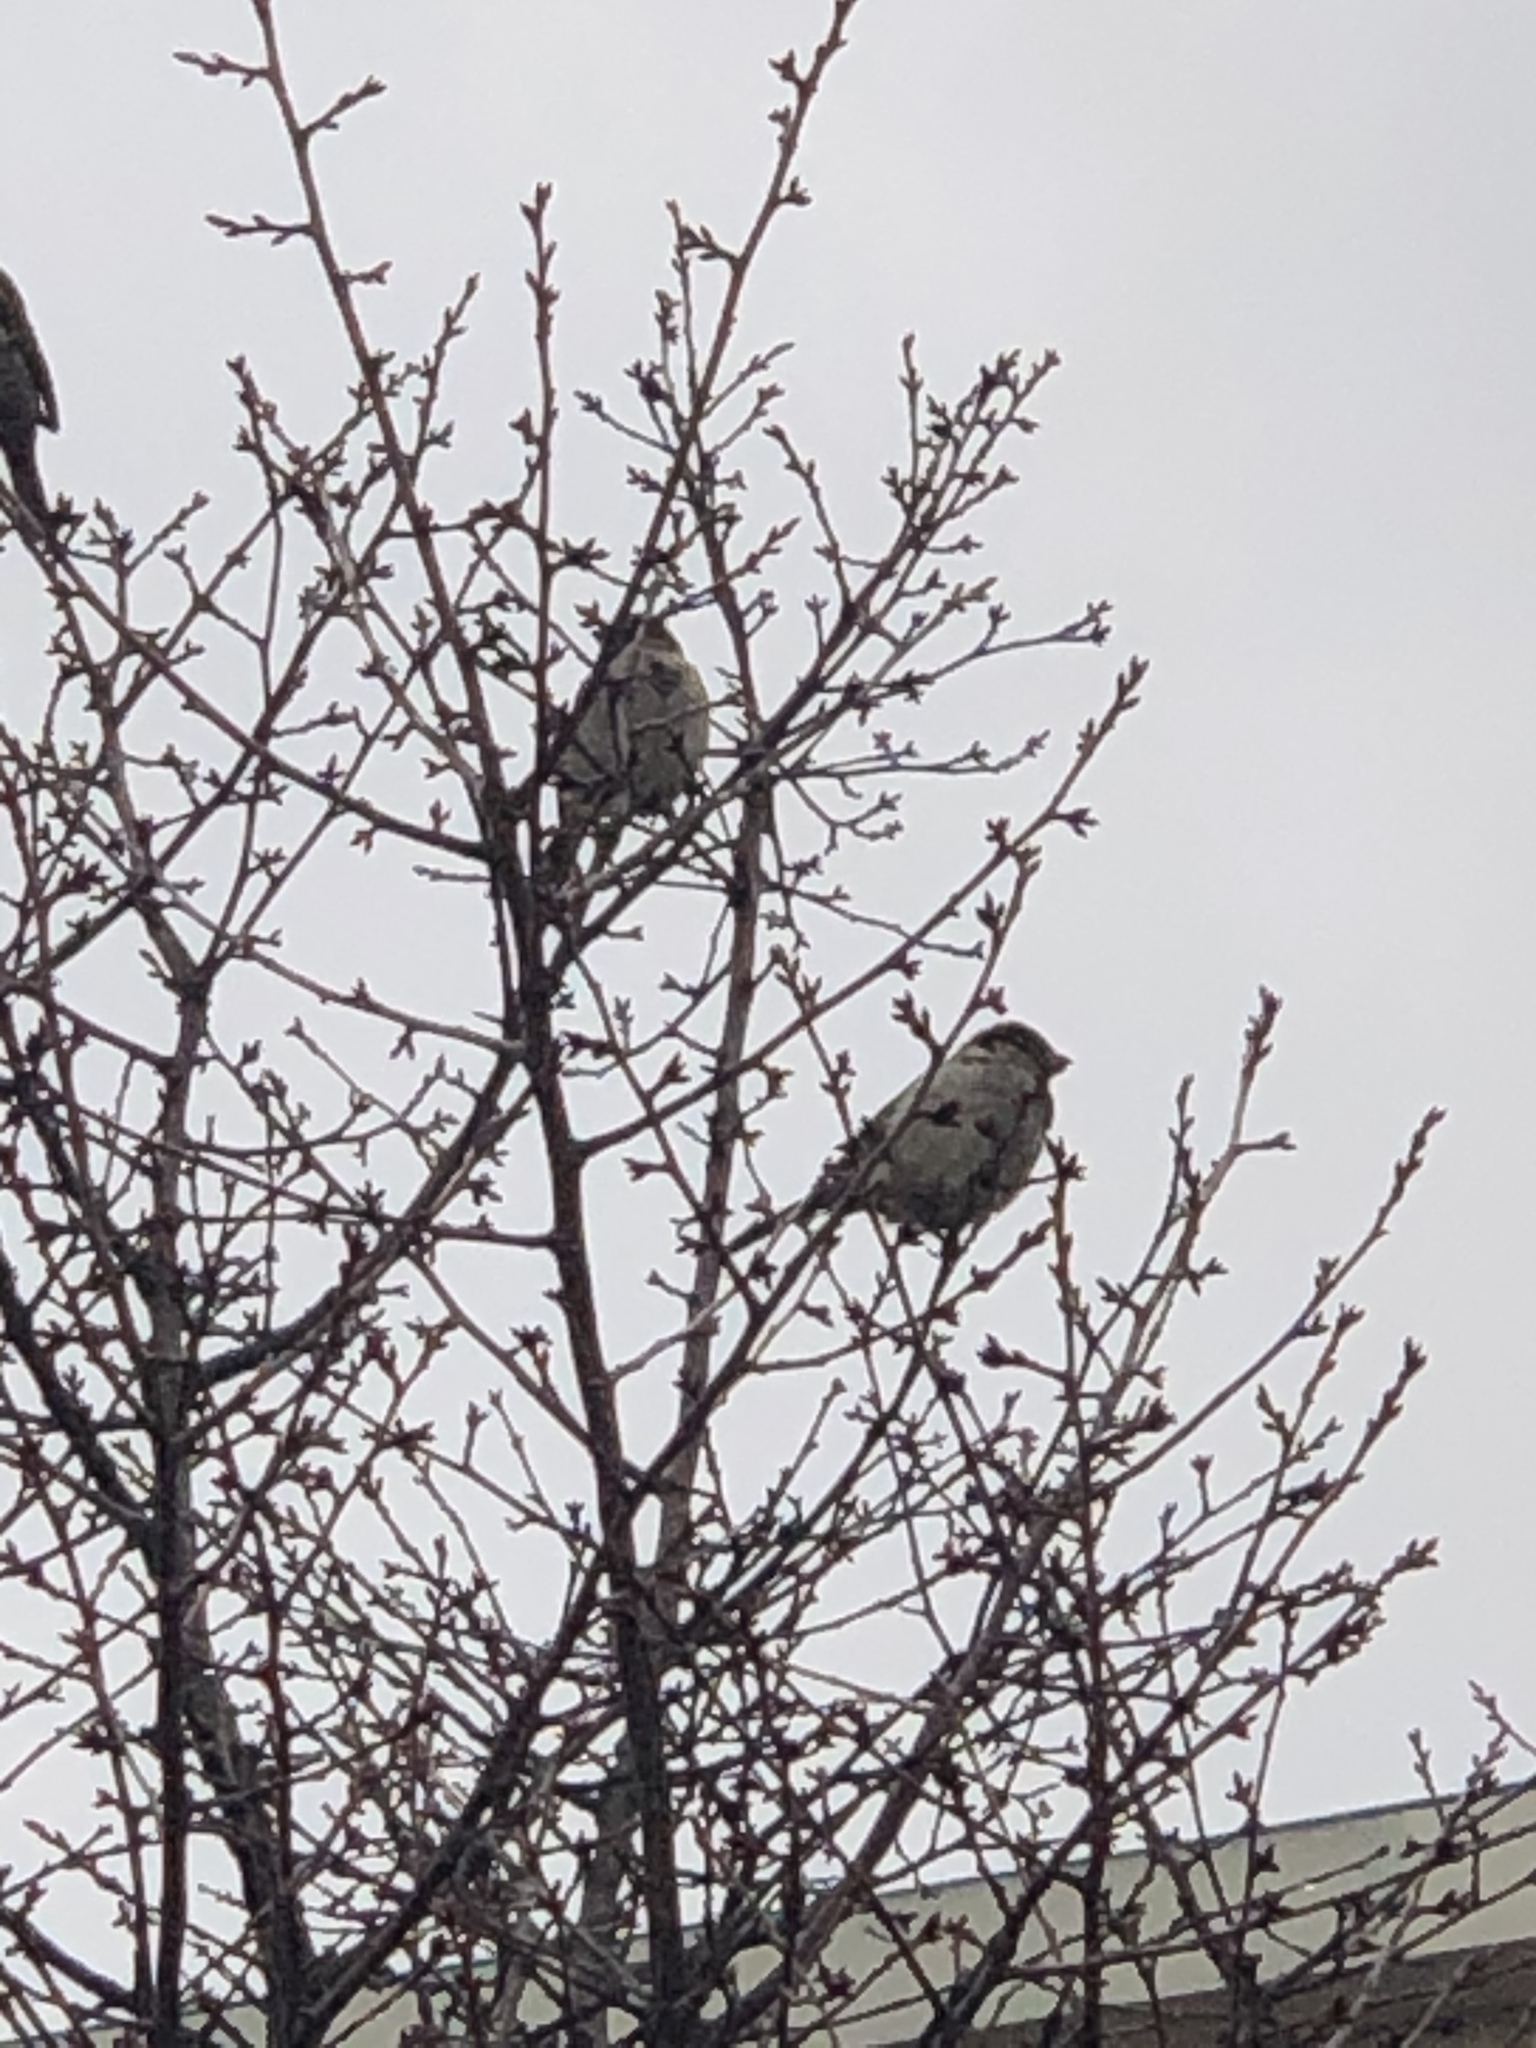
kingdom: Animalia
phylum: Chordata
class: Aves
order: Passeriformes
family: Passeridae
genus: Passer
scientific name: Passer domesticus
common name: House sparrow
